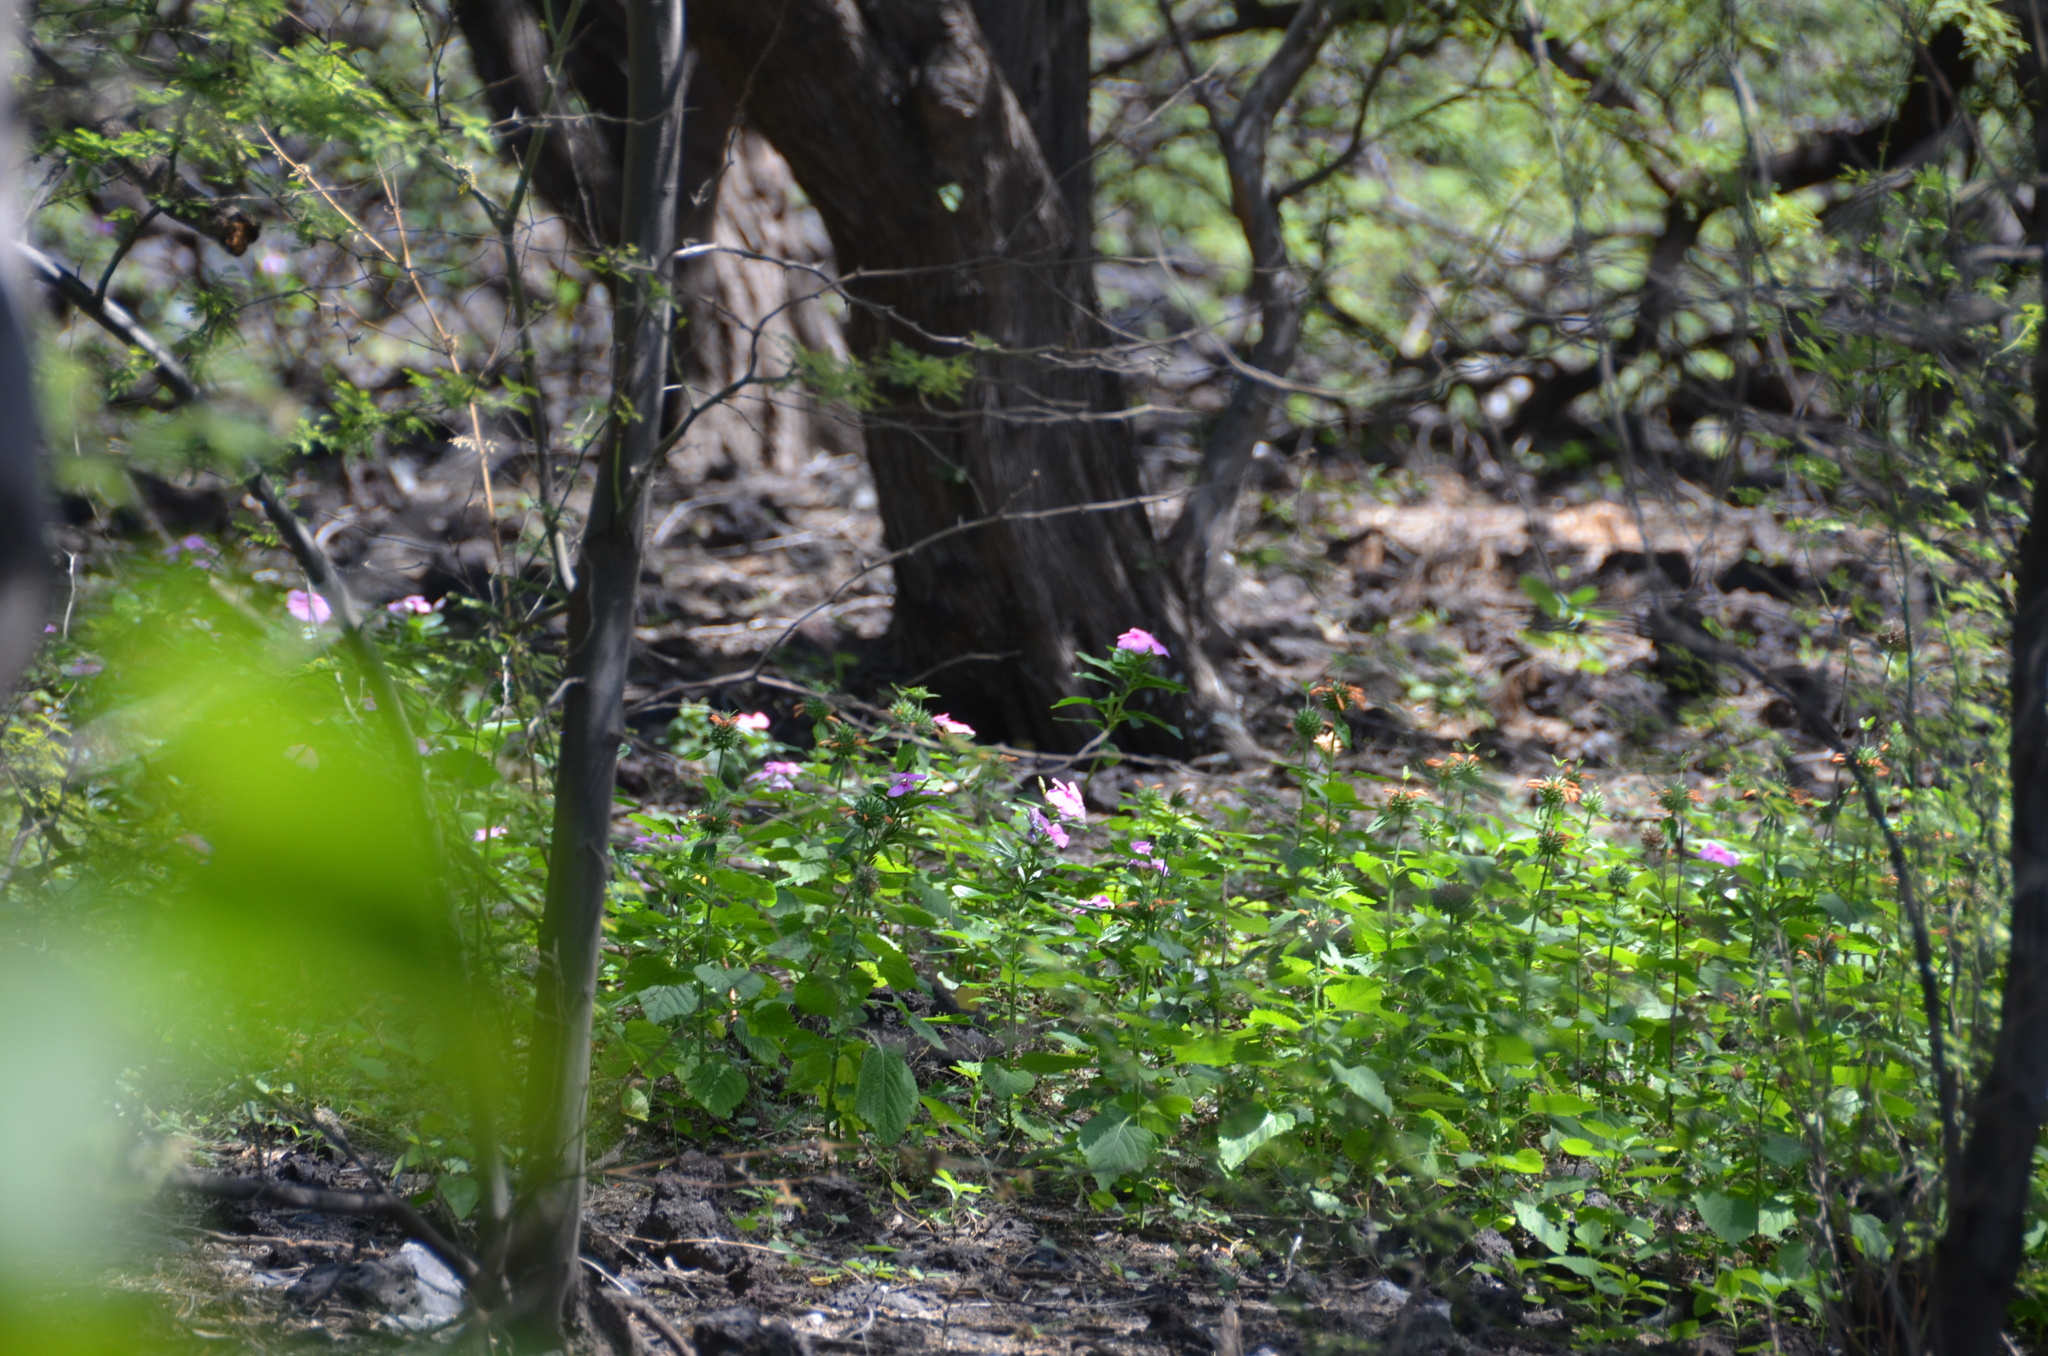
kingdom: Plantae
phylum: Tracheophyta
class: Magnoliopsida
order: Gentianales
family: Apocynaceae
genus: Catharanthus
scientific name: Catharanthus roseus
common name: Madagascar periwinkle
